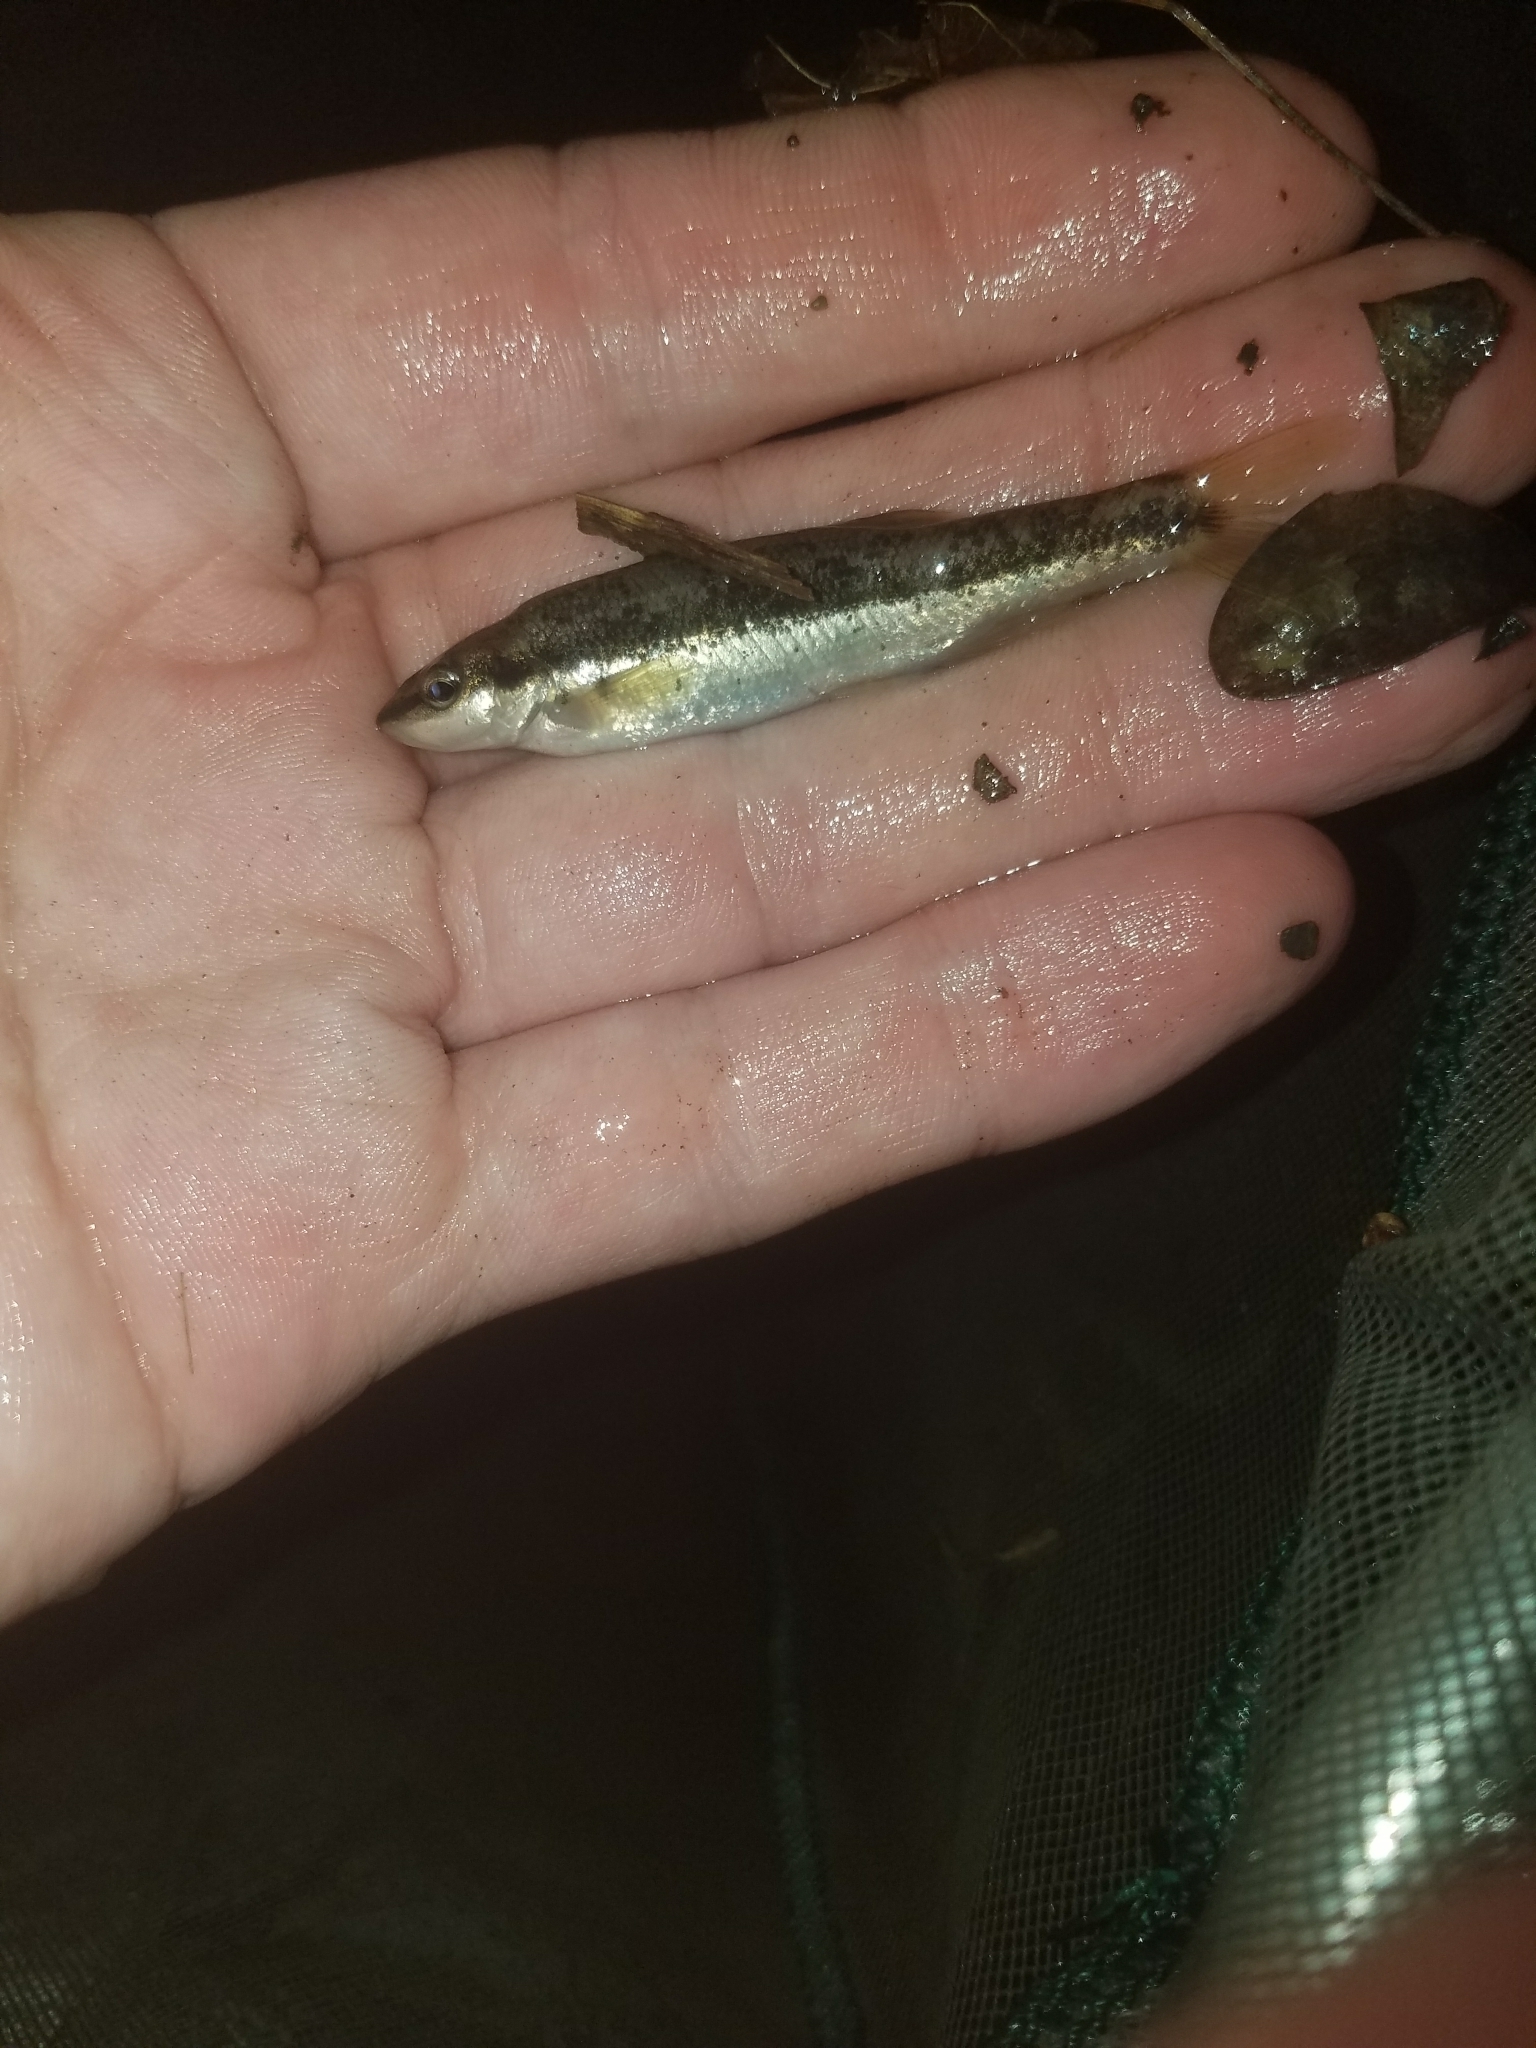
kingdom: Animalia
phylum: Chordata
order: Cypriniformes
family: Cyprinidae
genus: Rhinichthys
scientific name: Rhinichthys atratulus
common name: Eastern blacknose dace
